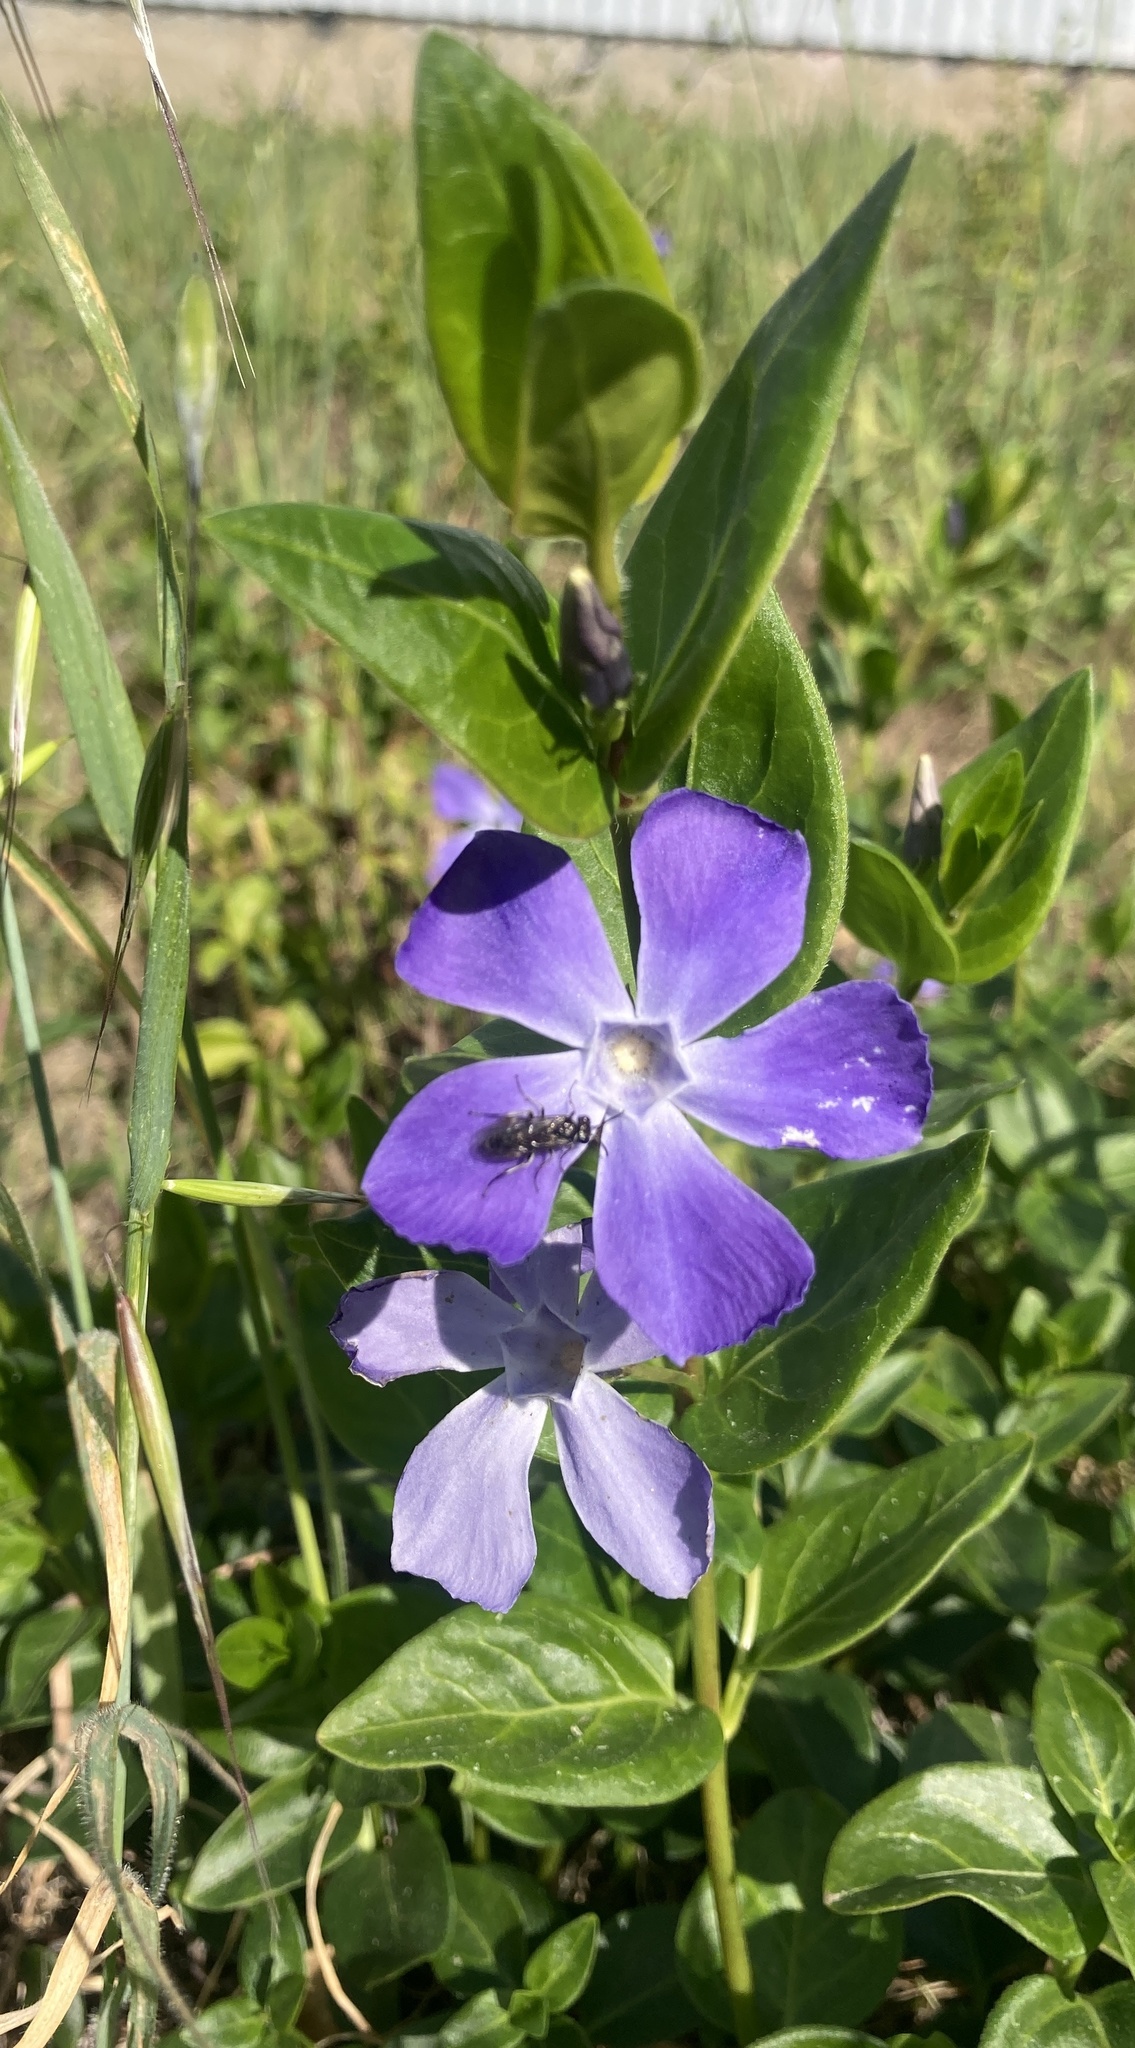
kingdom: Plantae
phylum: Tracheophyta
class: Magnoliopsida
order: Gentianales
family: Apocynaceae
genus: Vinca
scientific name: Vinca major
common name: Greater periwinkle
